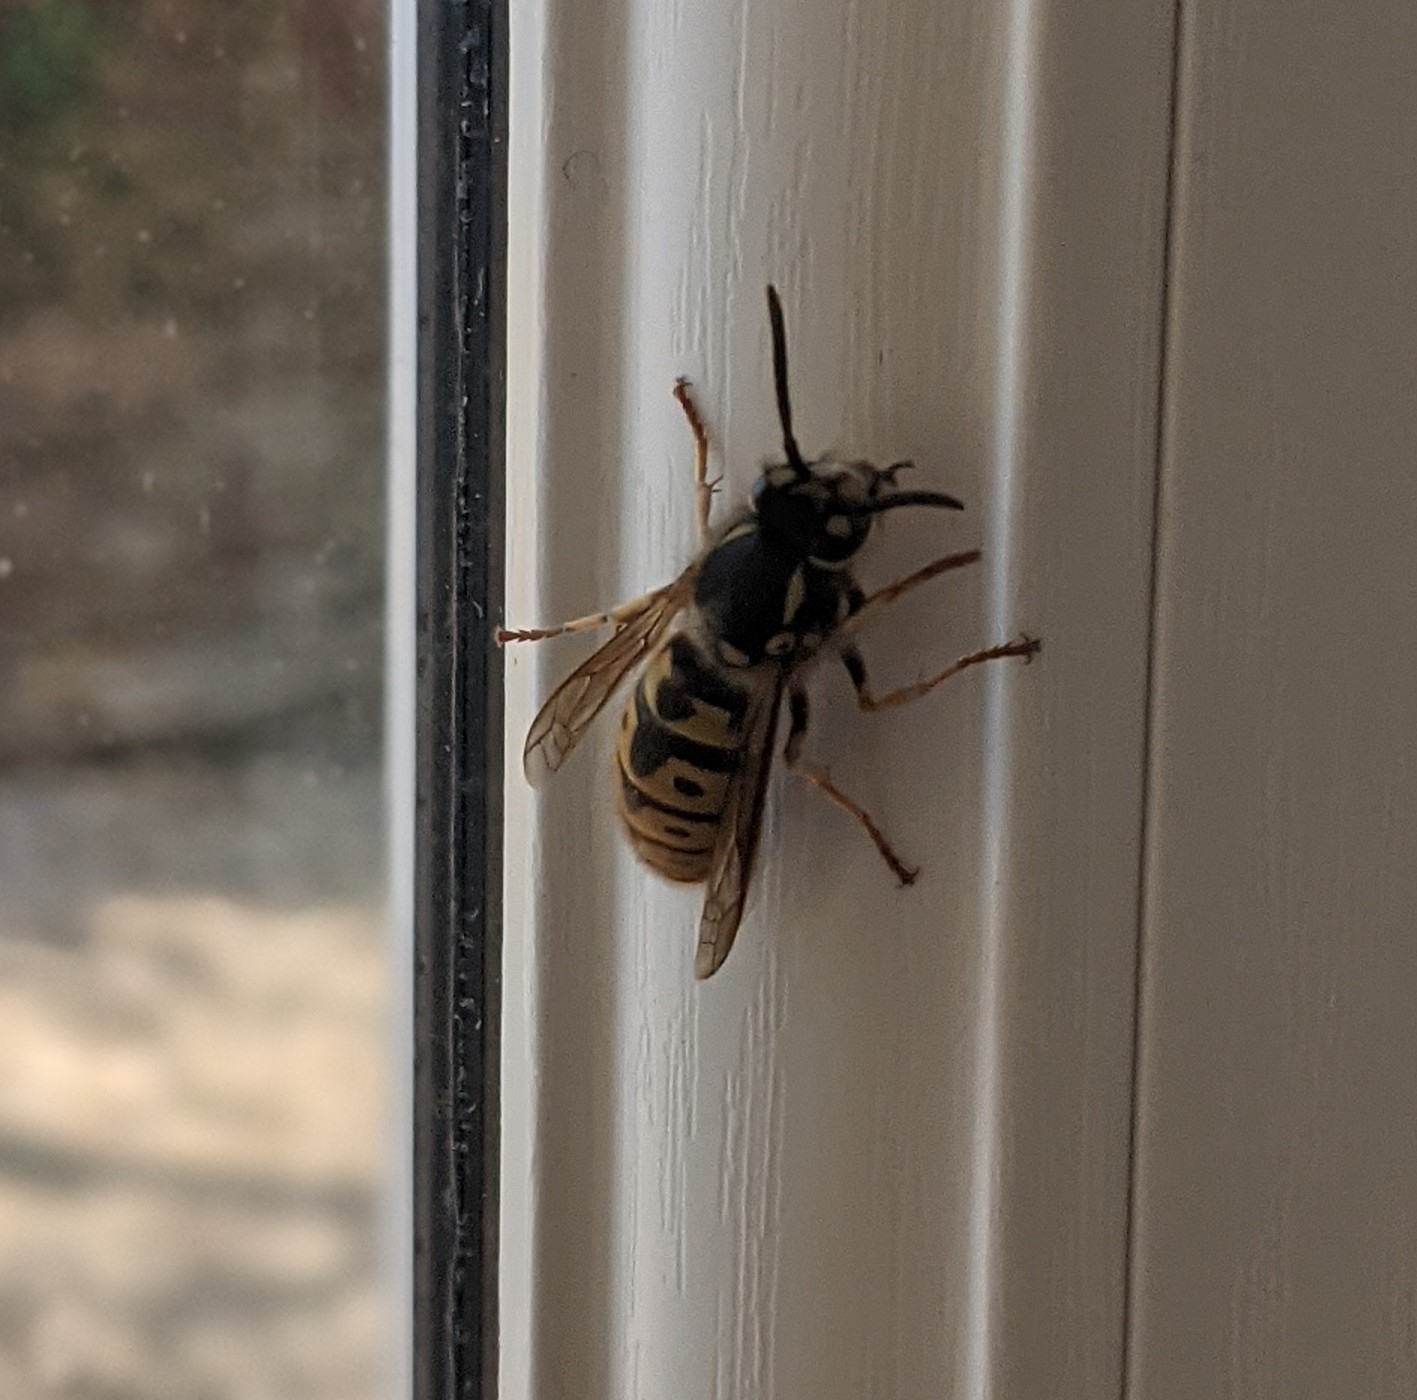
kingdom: Animalia
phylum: Arthropoda
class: Insecta
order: Hymenoptera
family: Vespidae
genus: Vespula
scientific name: Vespula germanica
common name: German wasp
